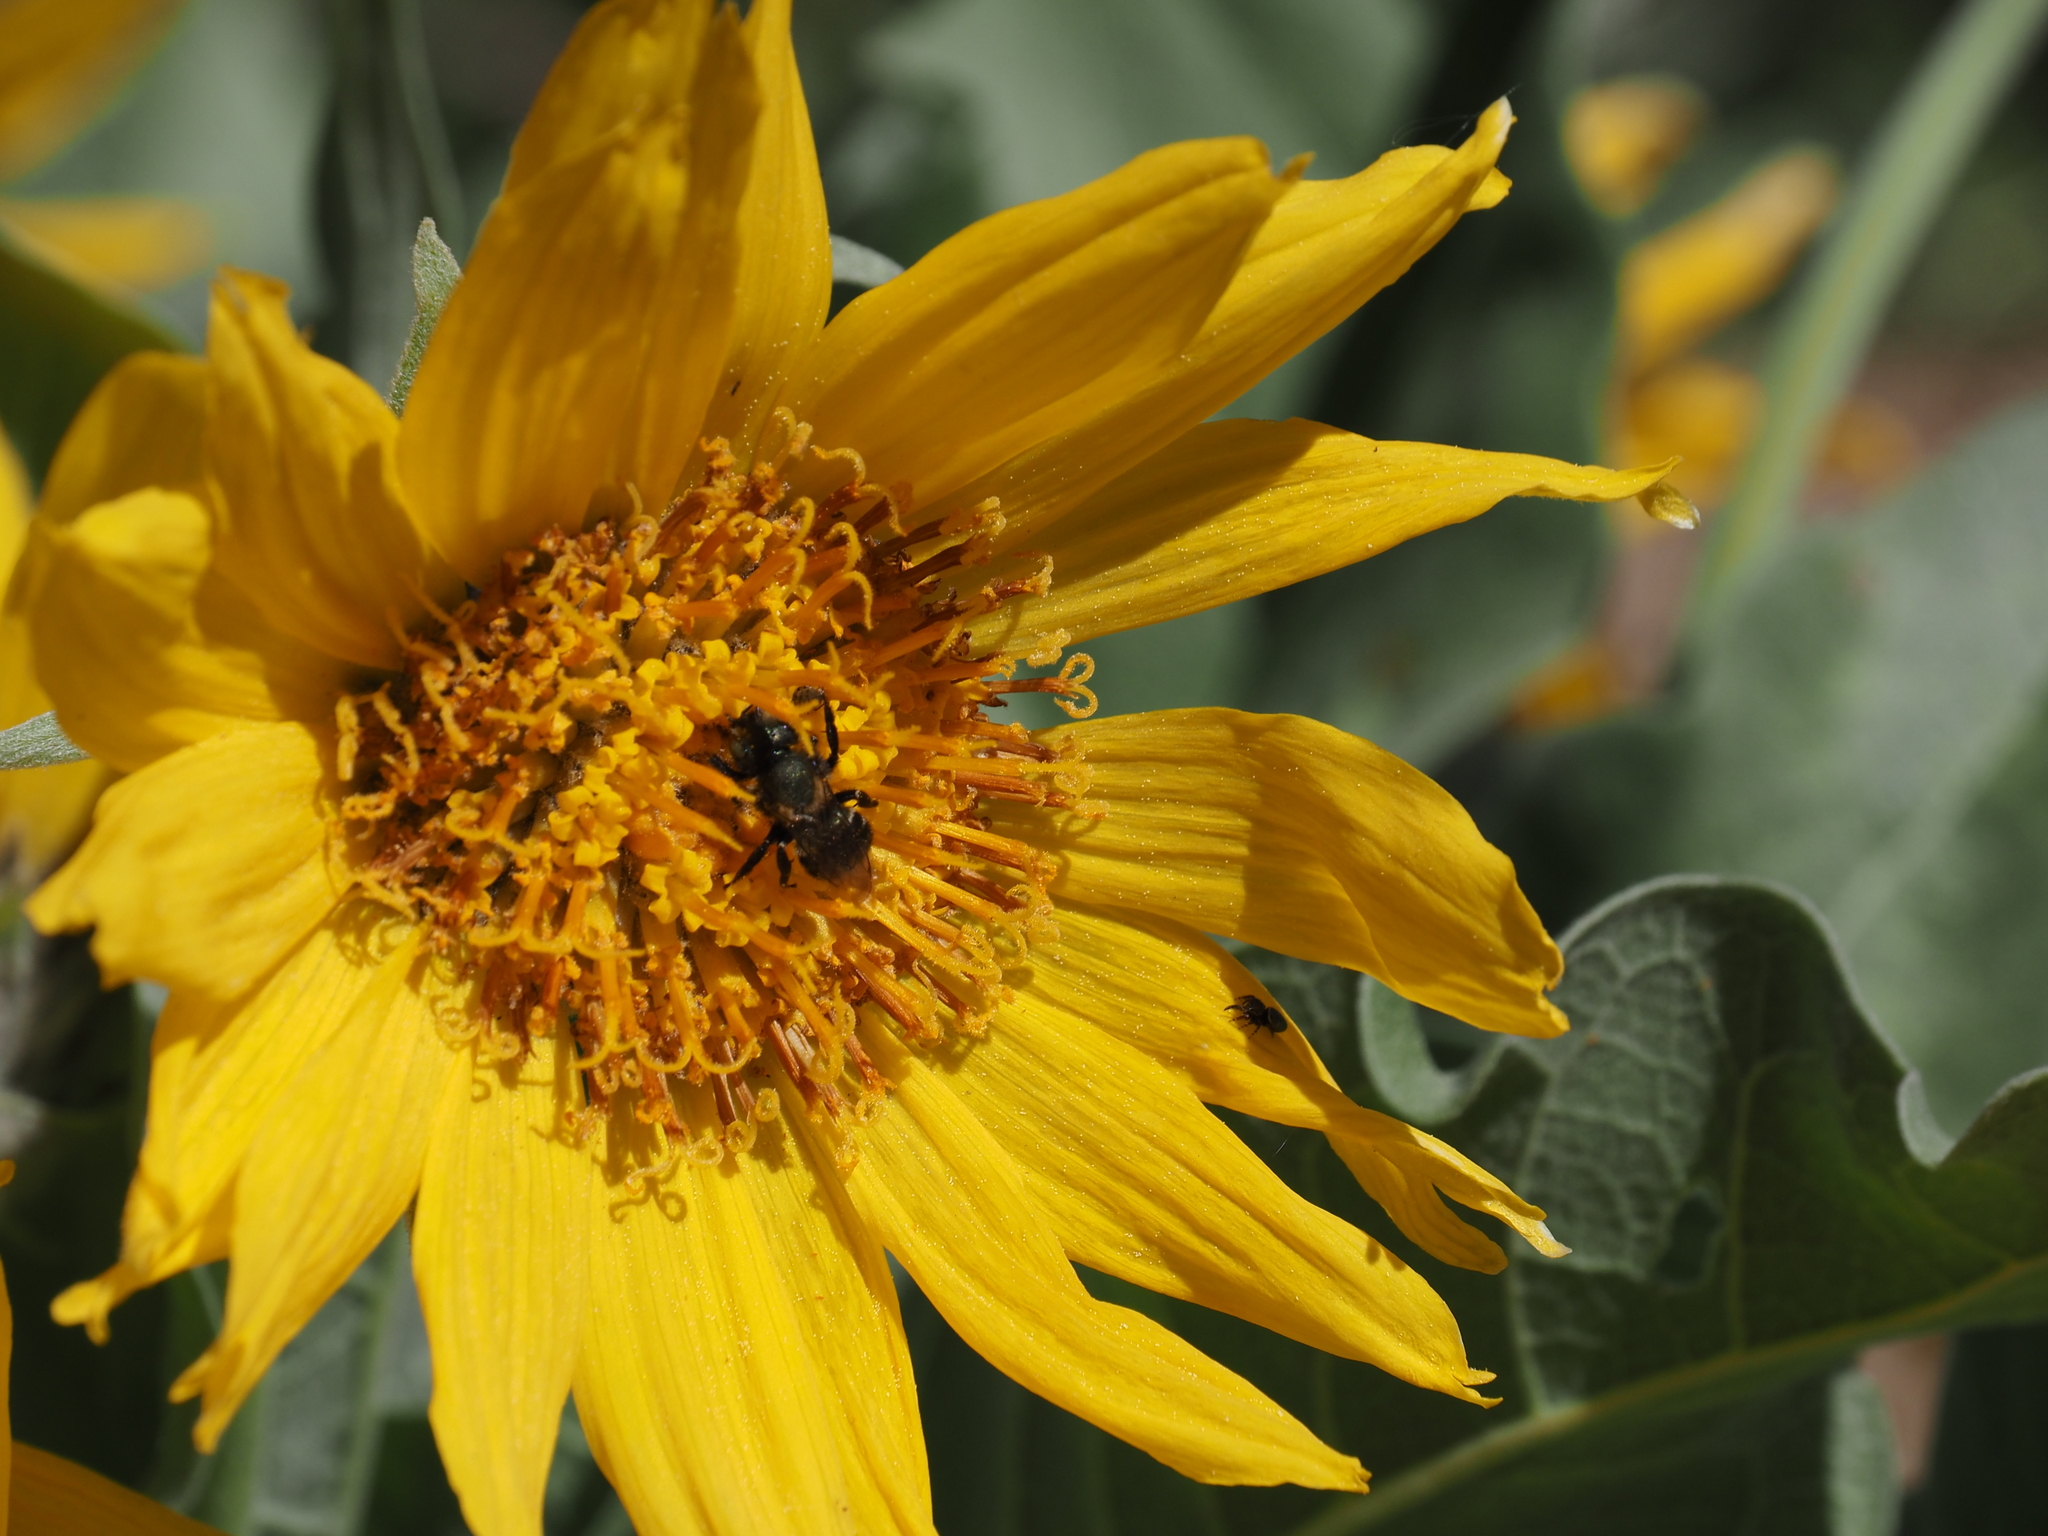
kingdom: Plantae
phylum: Tracheophyta
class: Magnoliopsida
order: Asterales
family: Asteraceae
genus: Wyethia
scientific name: Wyethia sagittata
